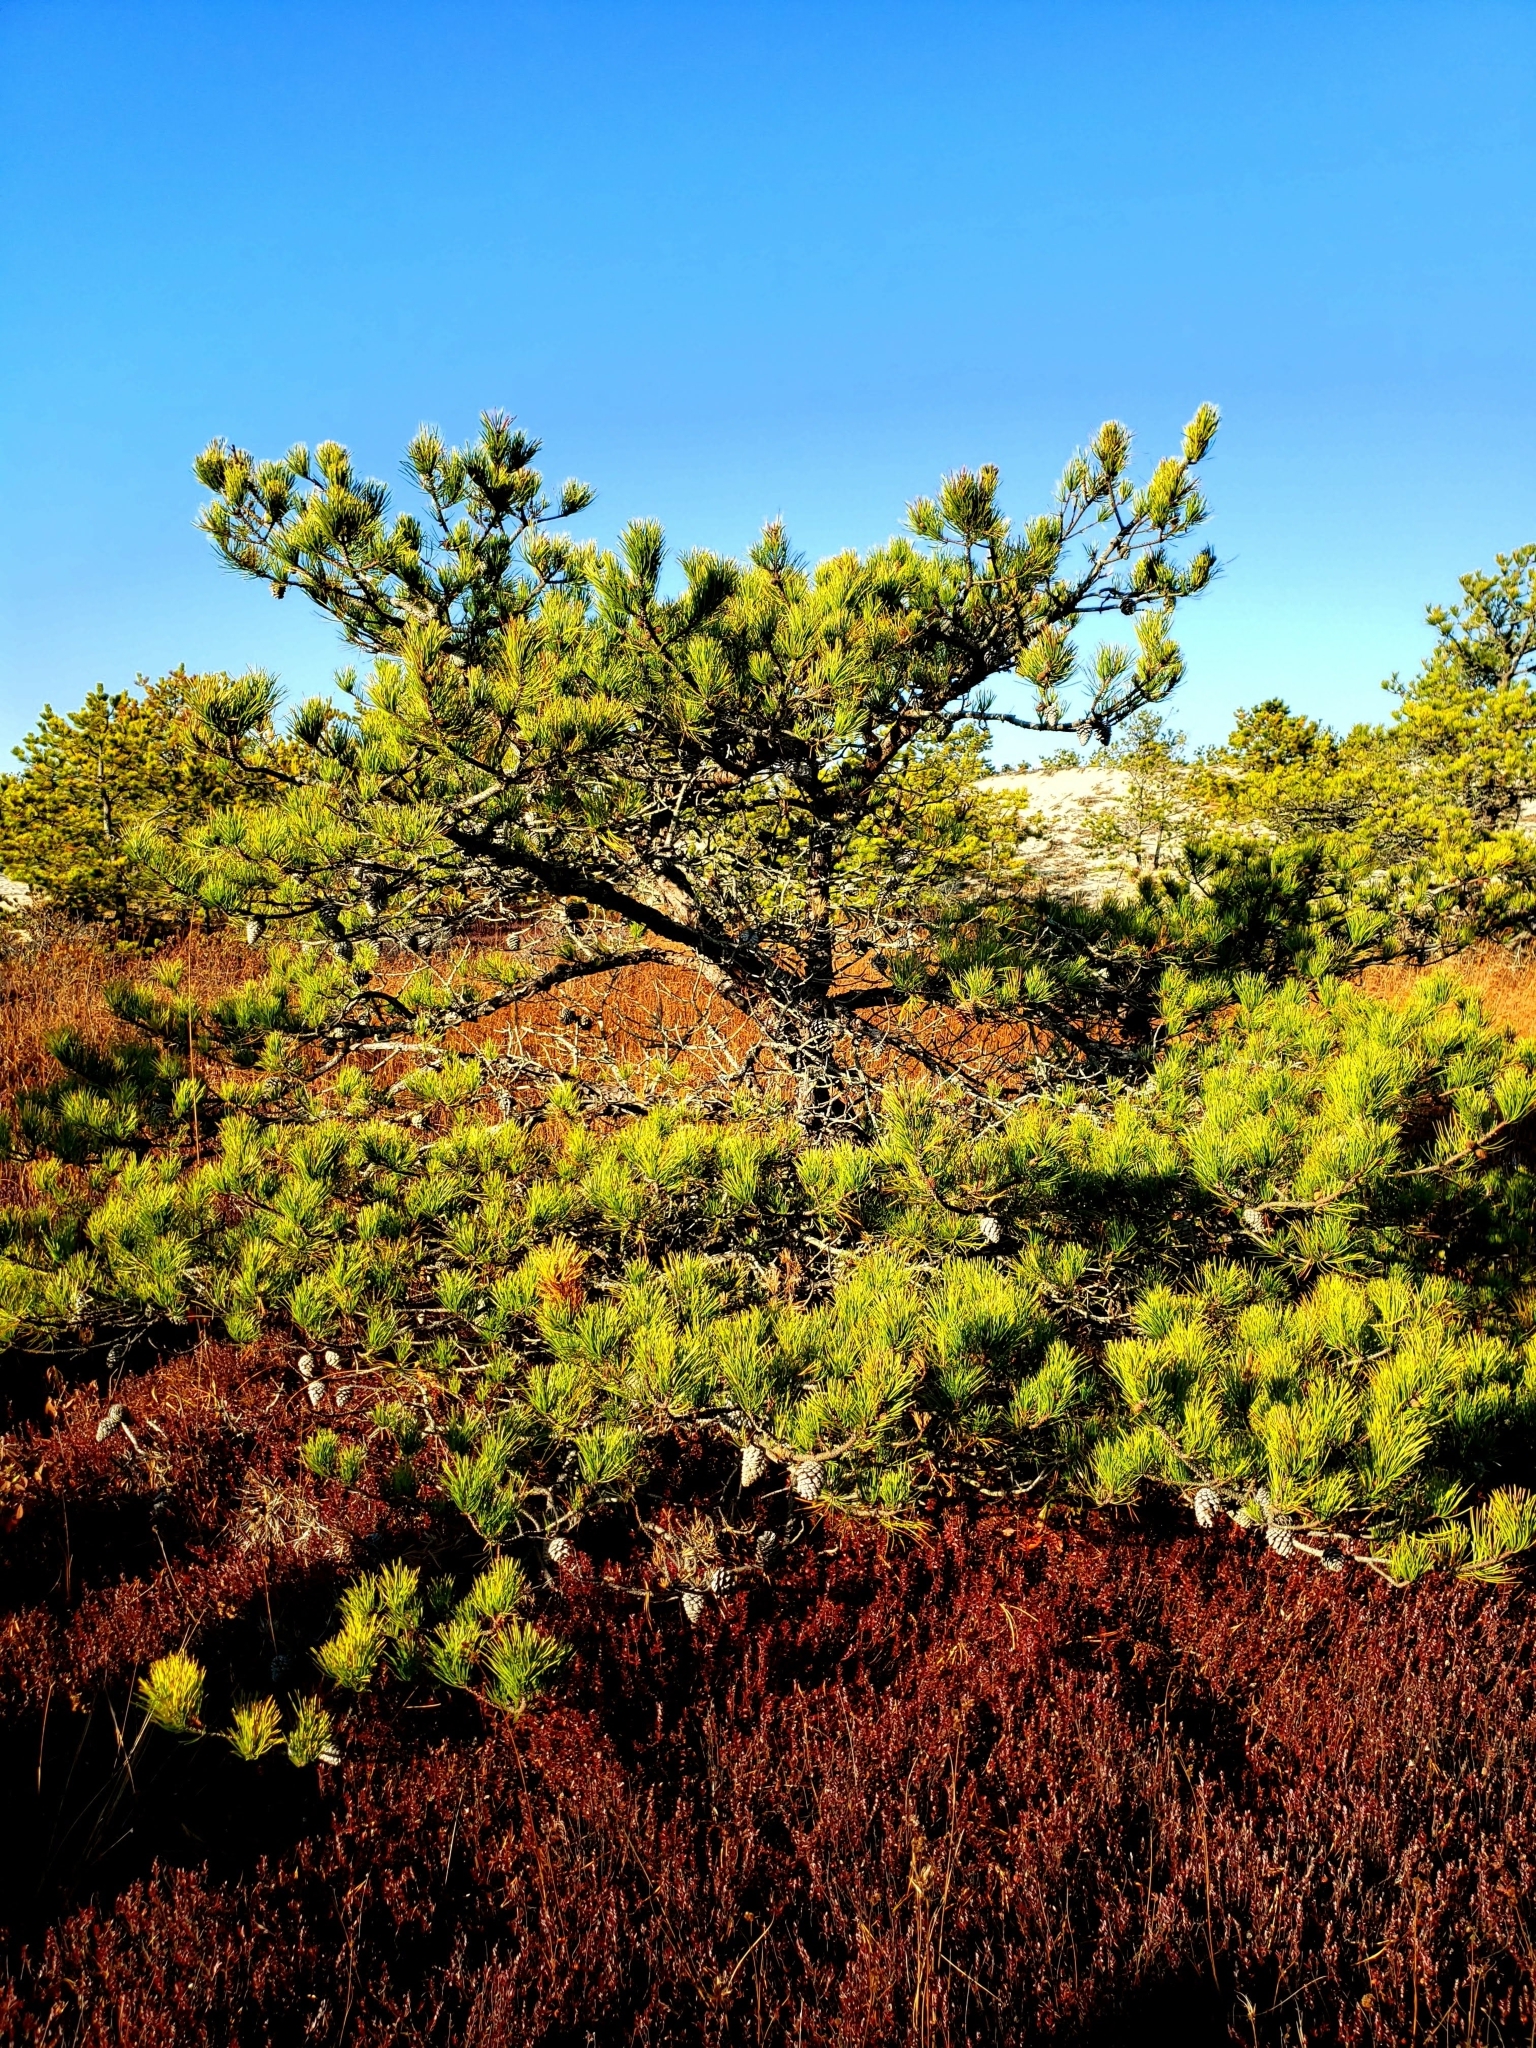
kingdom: Plantae
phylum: Tracheophyta
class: Pinopsida
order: Pinales
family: Pinaceae
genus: Pinus
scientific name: Pinus rigida
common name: Pitch pine
